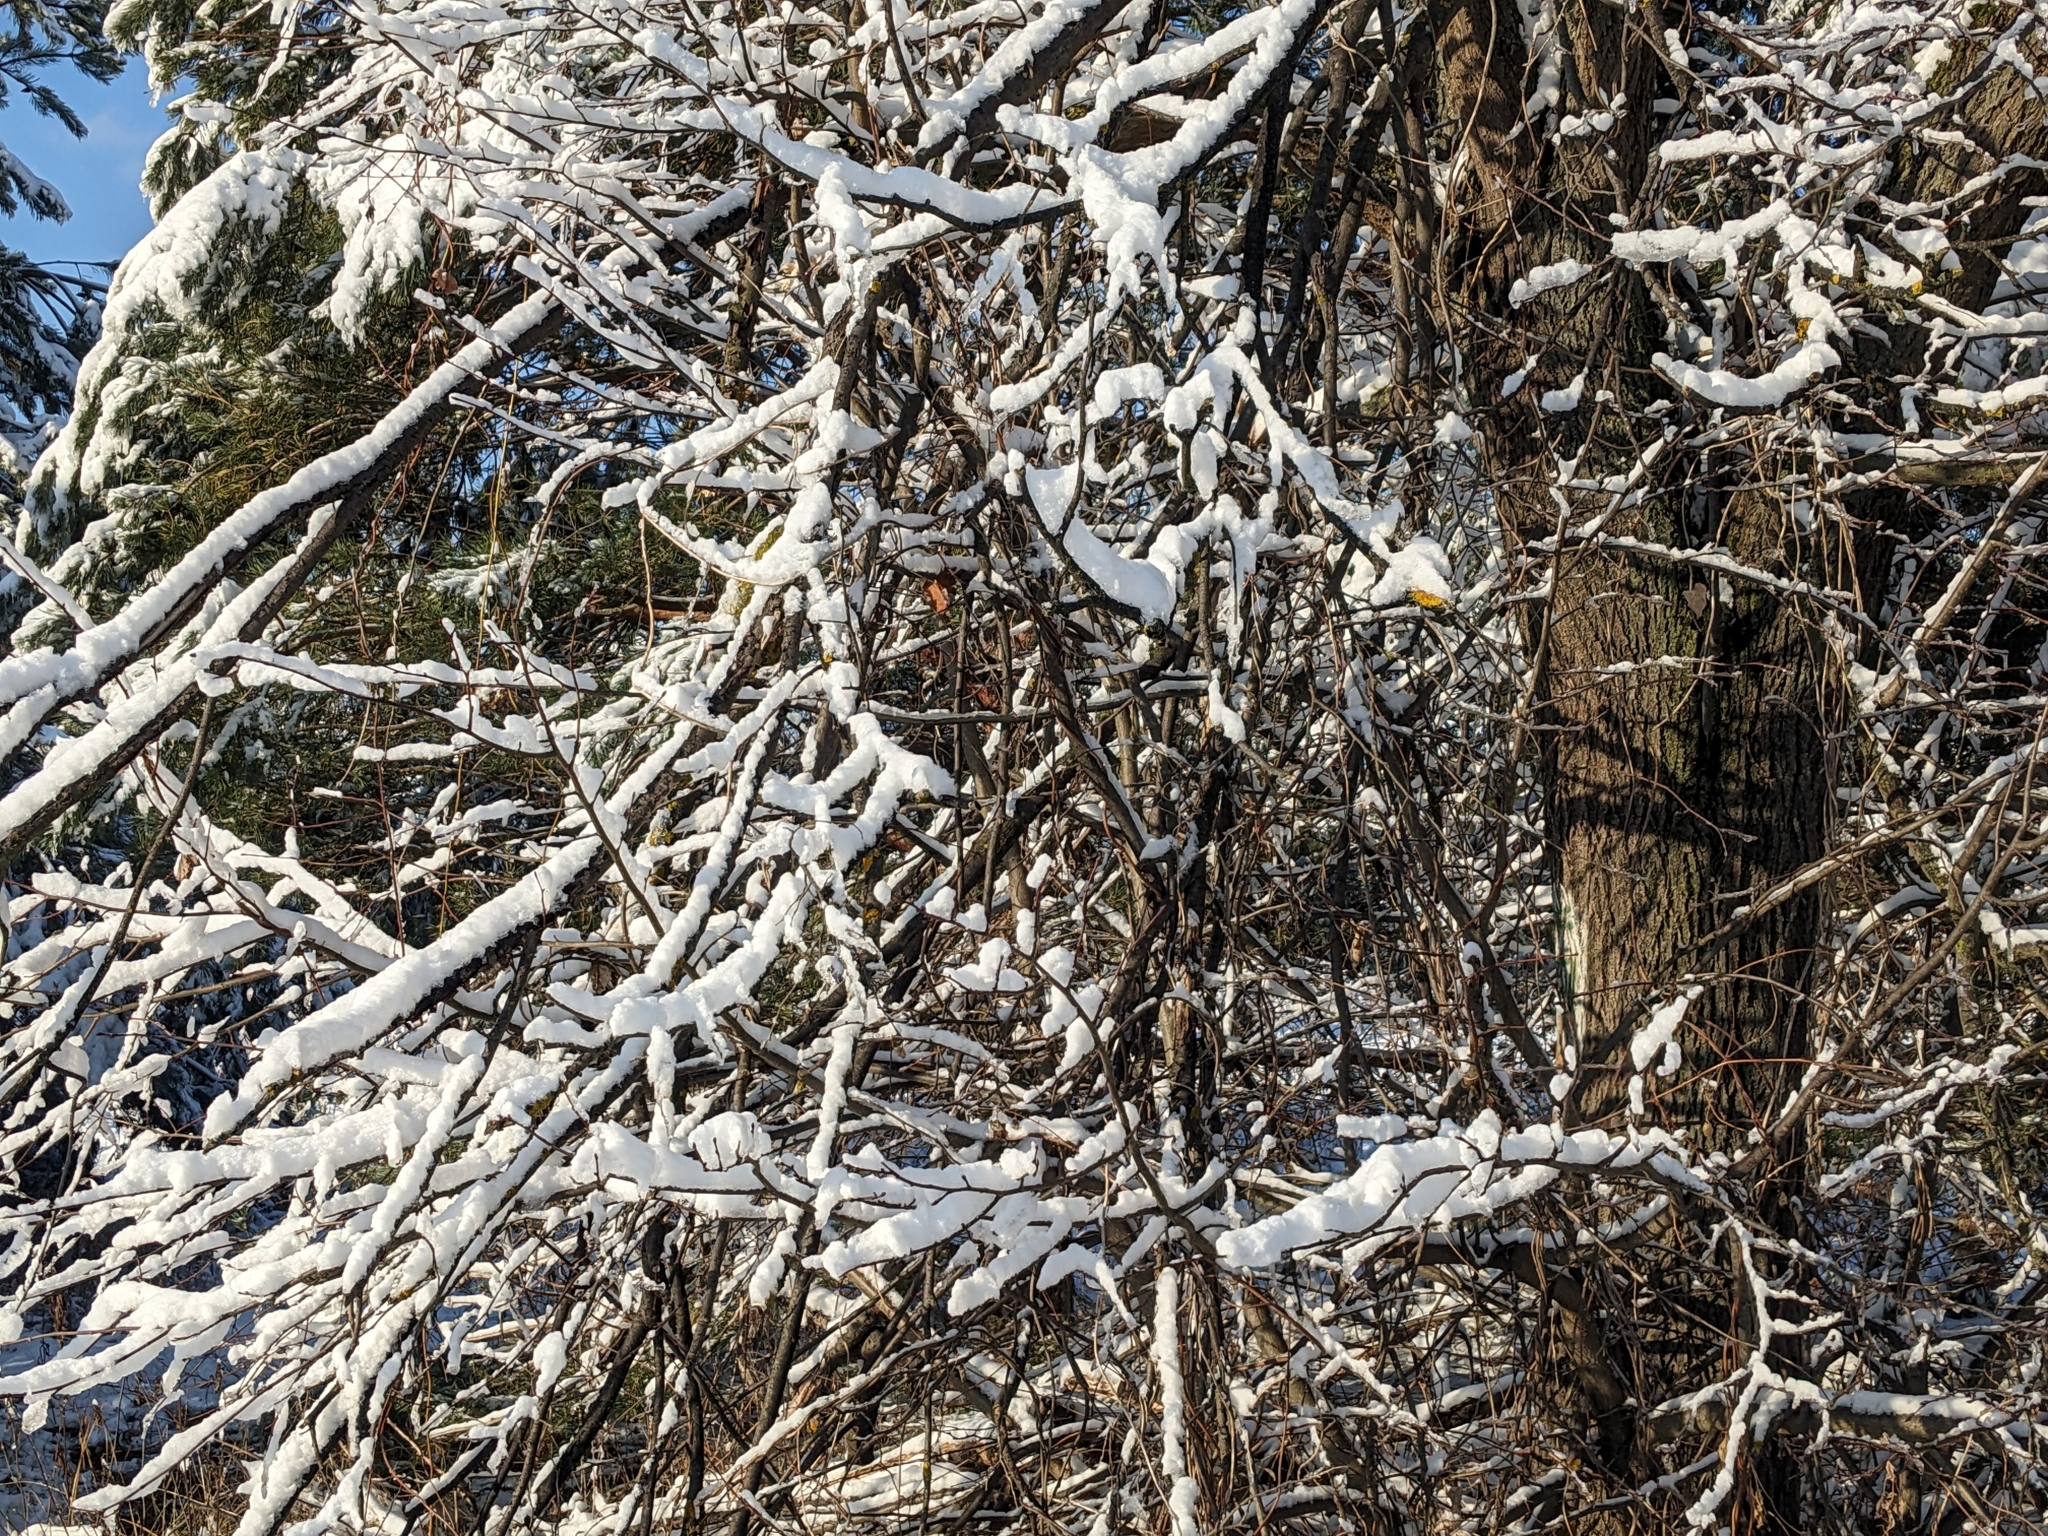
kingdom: Fungi
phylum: Ascomycota
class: Lecanoromycetes
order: Teloschistales
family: Teloschistaceae
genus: Xanthoria
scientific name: Xanthoria parietina
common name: Common orange lichen
